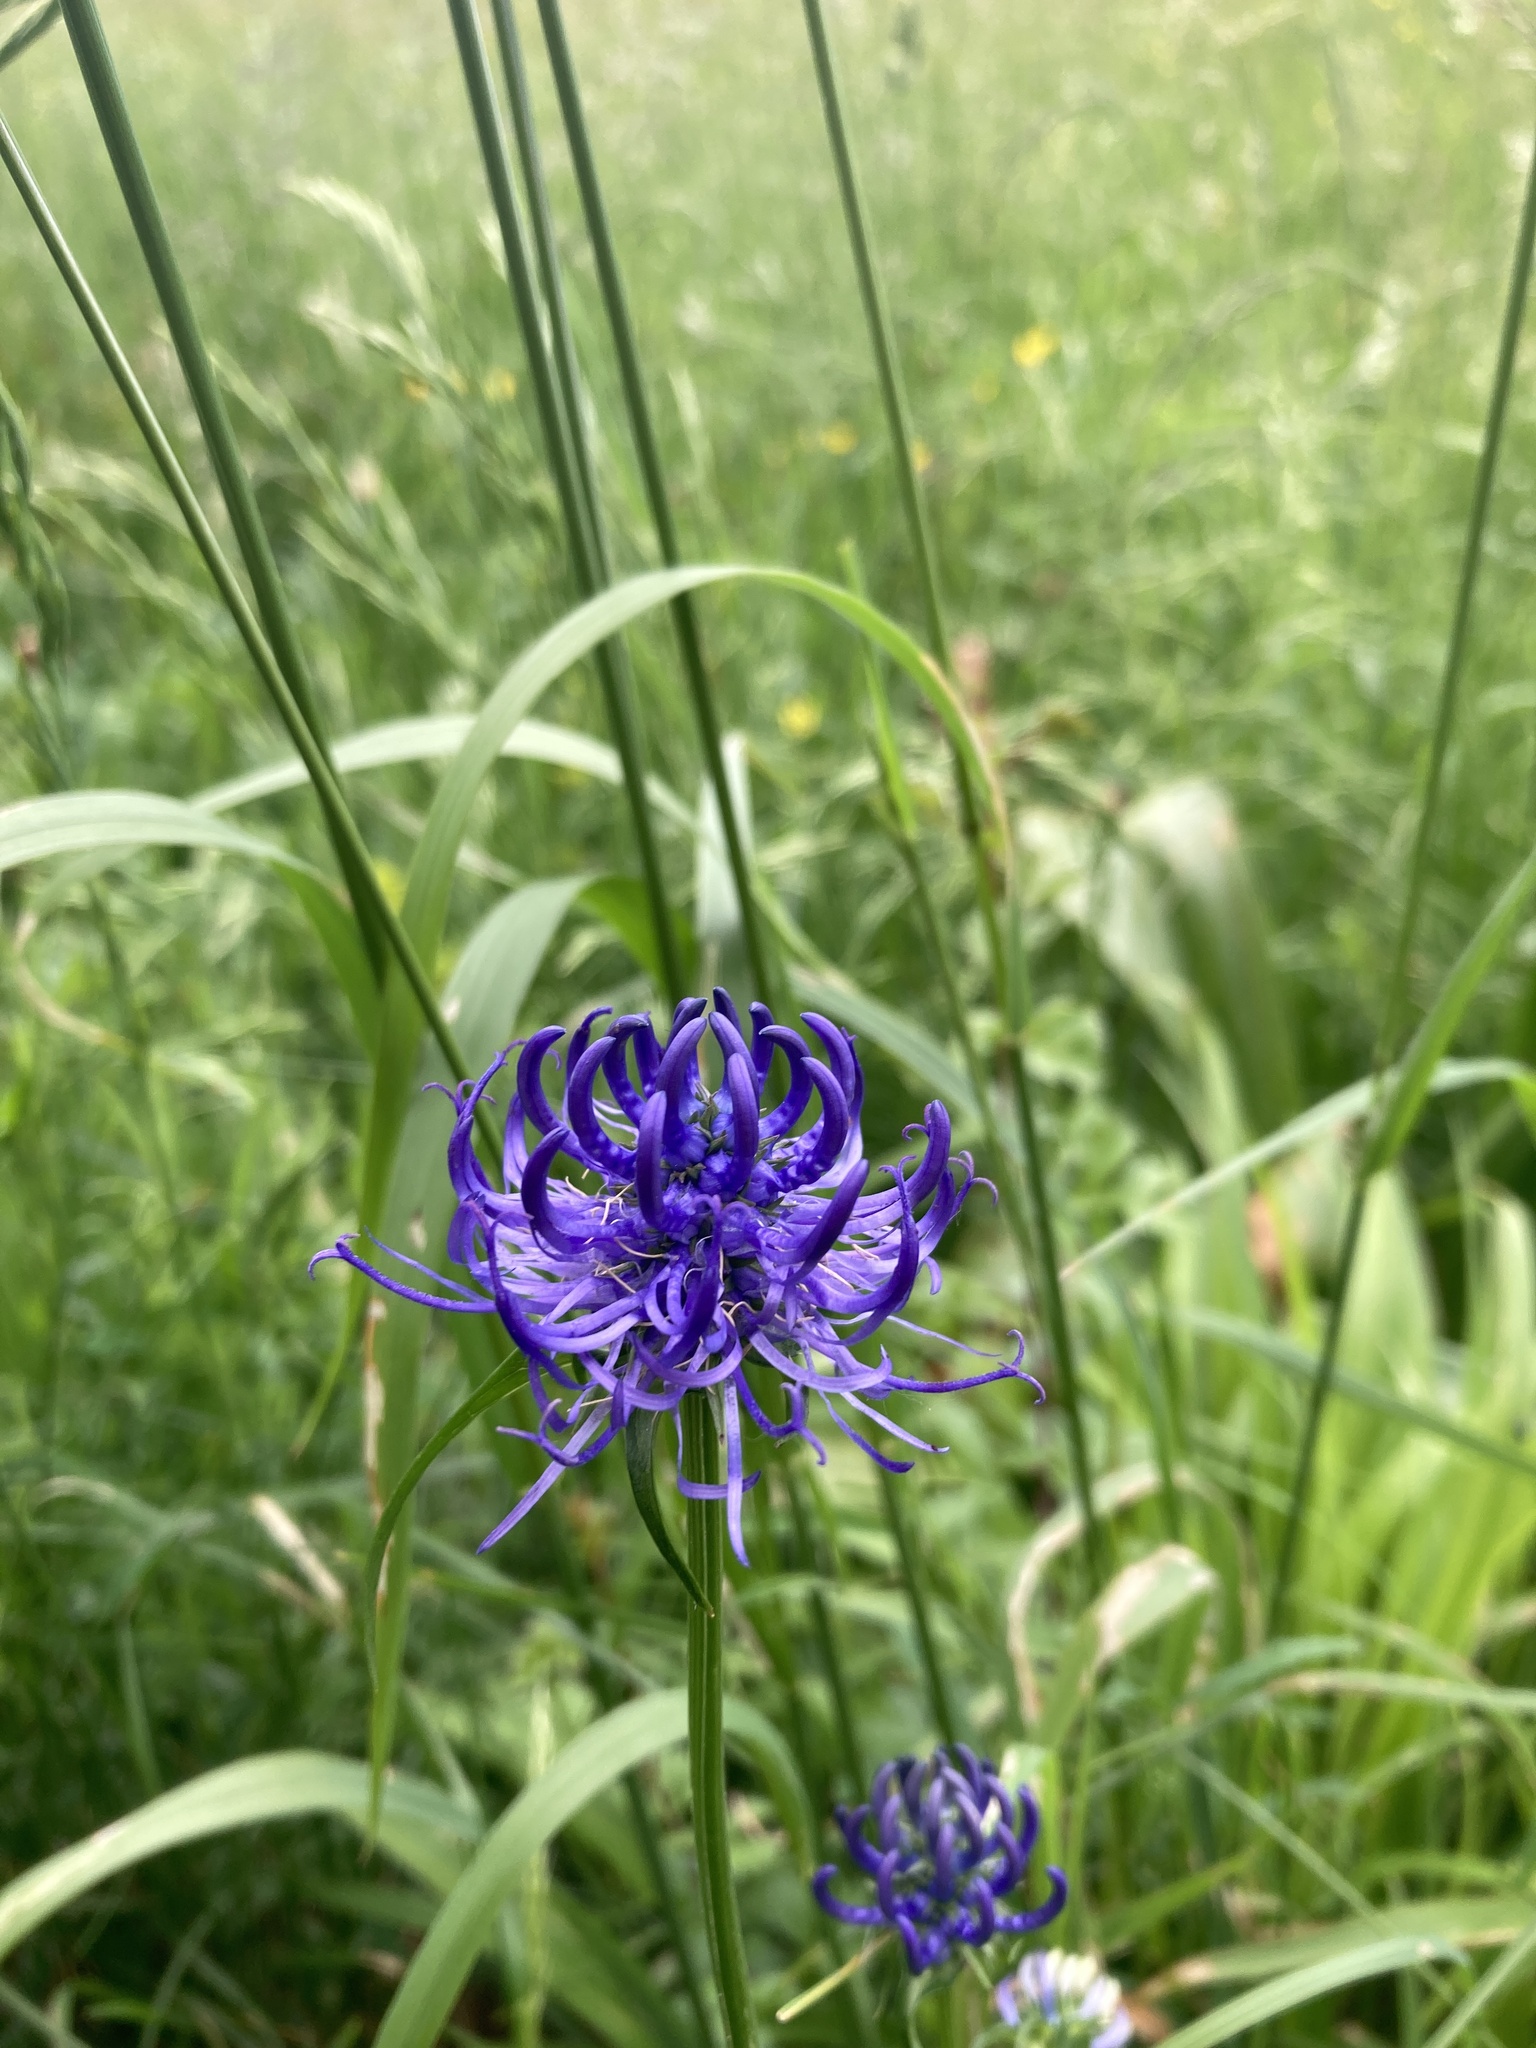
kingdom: Plantae
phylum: Tracheophyta
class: Magnoliopsida
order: Asterales
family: Campanulaceae
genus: Phyteuma
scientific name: Phyteuma orbiculare
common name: Round-headed rampion
